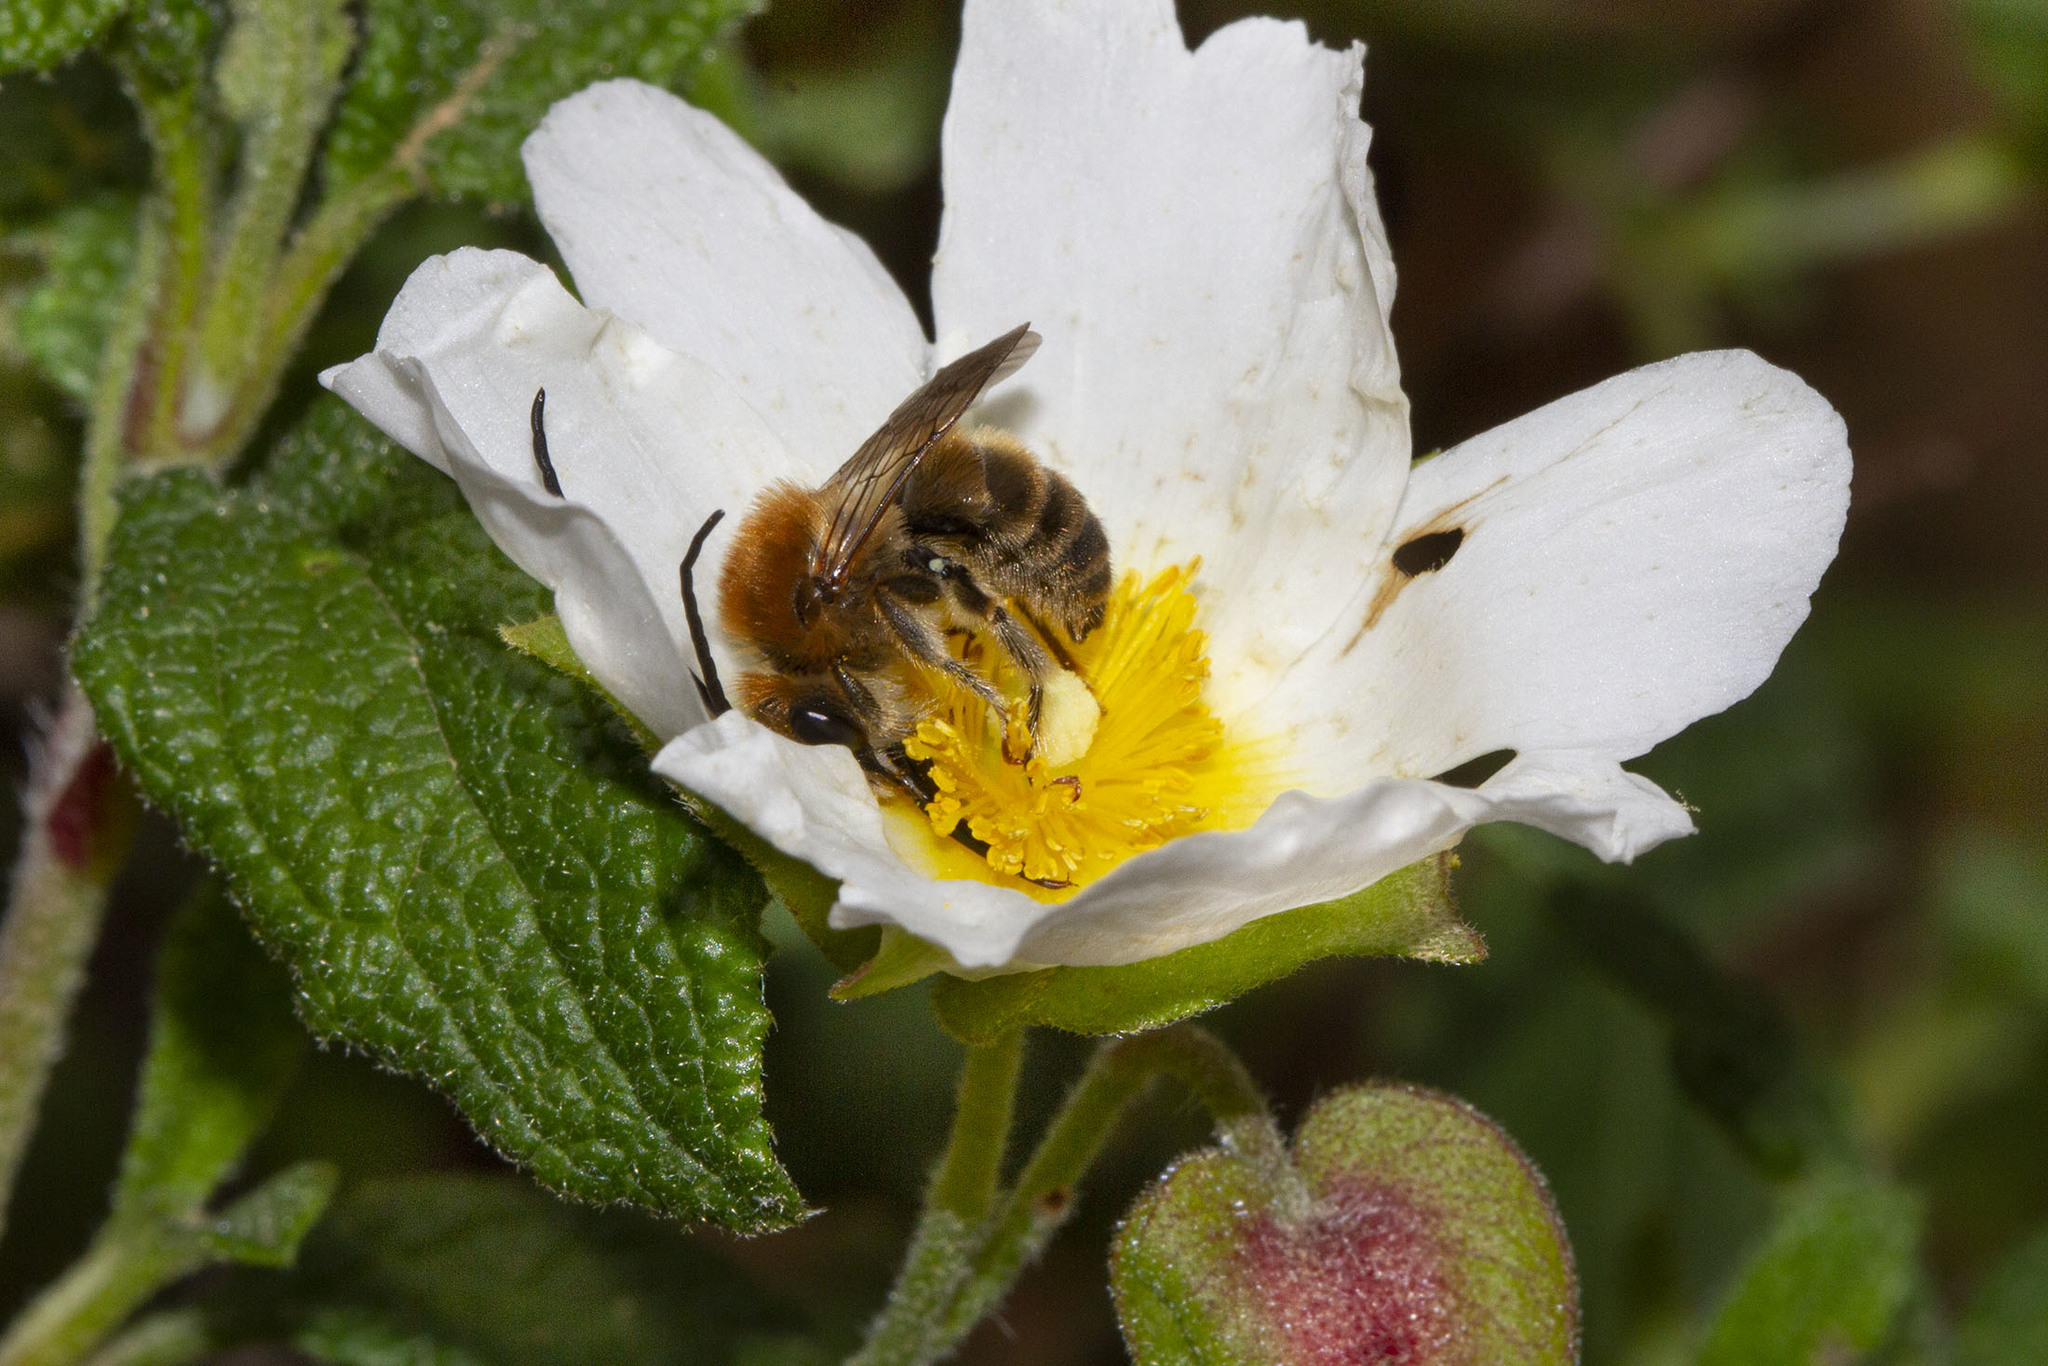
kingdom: Plantae
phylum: Tracheophyta
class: Magnoliopsida
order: Malvales
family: Cistaceae
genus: Cistus
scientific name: Cistus salviifolius
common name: Salvia cistus
